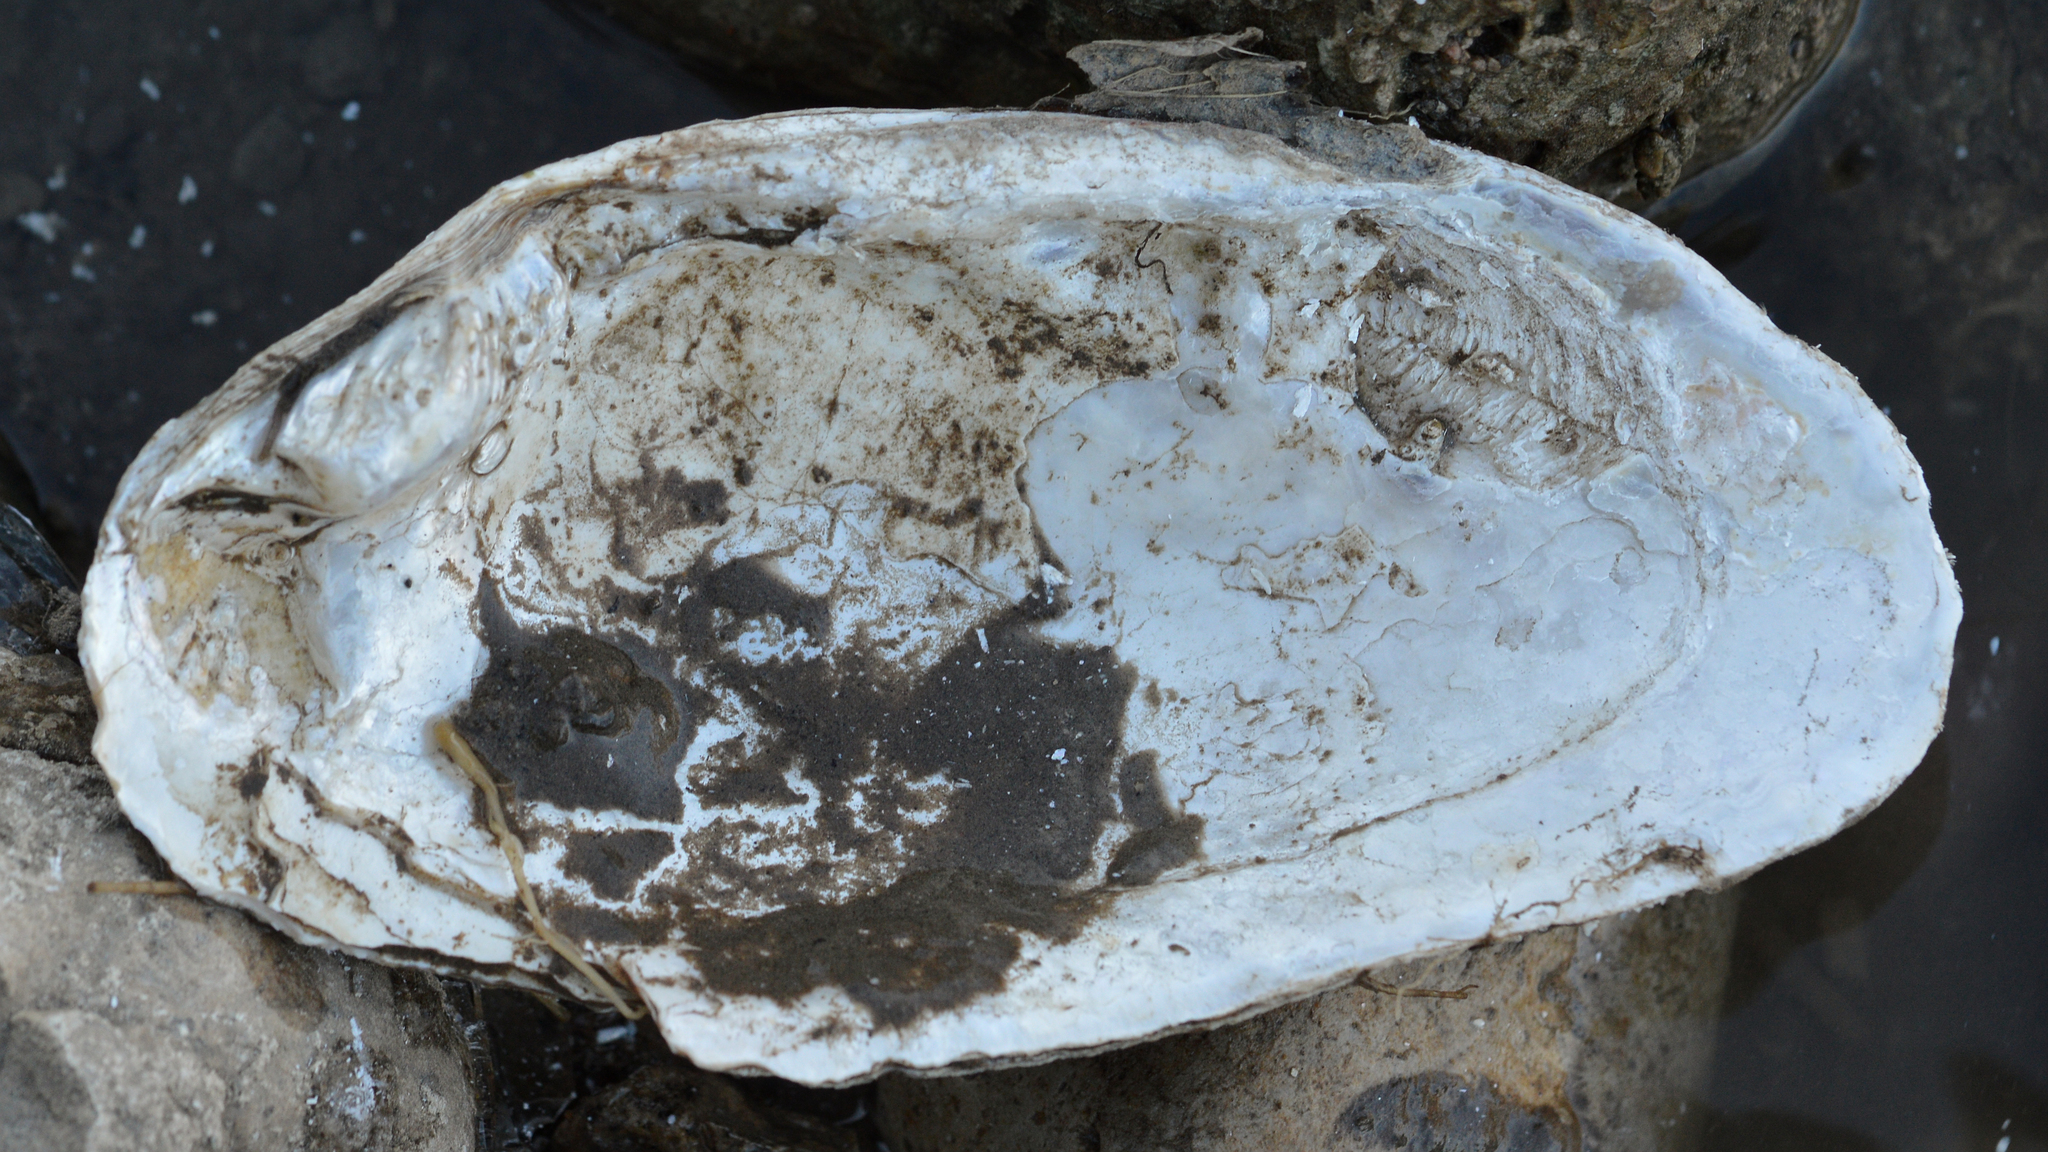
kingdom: Animalia
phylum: Mollusca
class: Bivalvia
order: Unionida
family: Unionidae
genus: Eurynia
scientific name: Eurynia dilatata
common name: Spike
